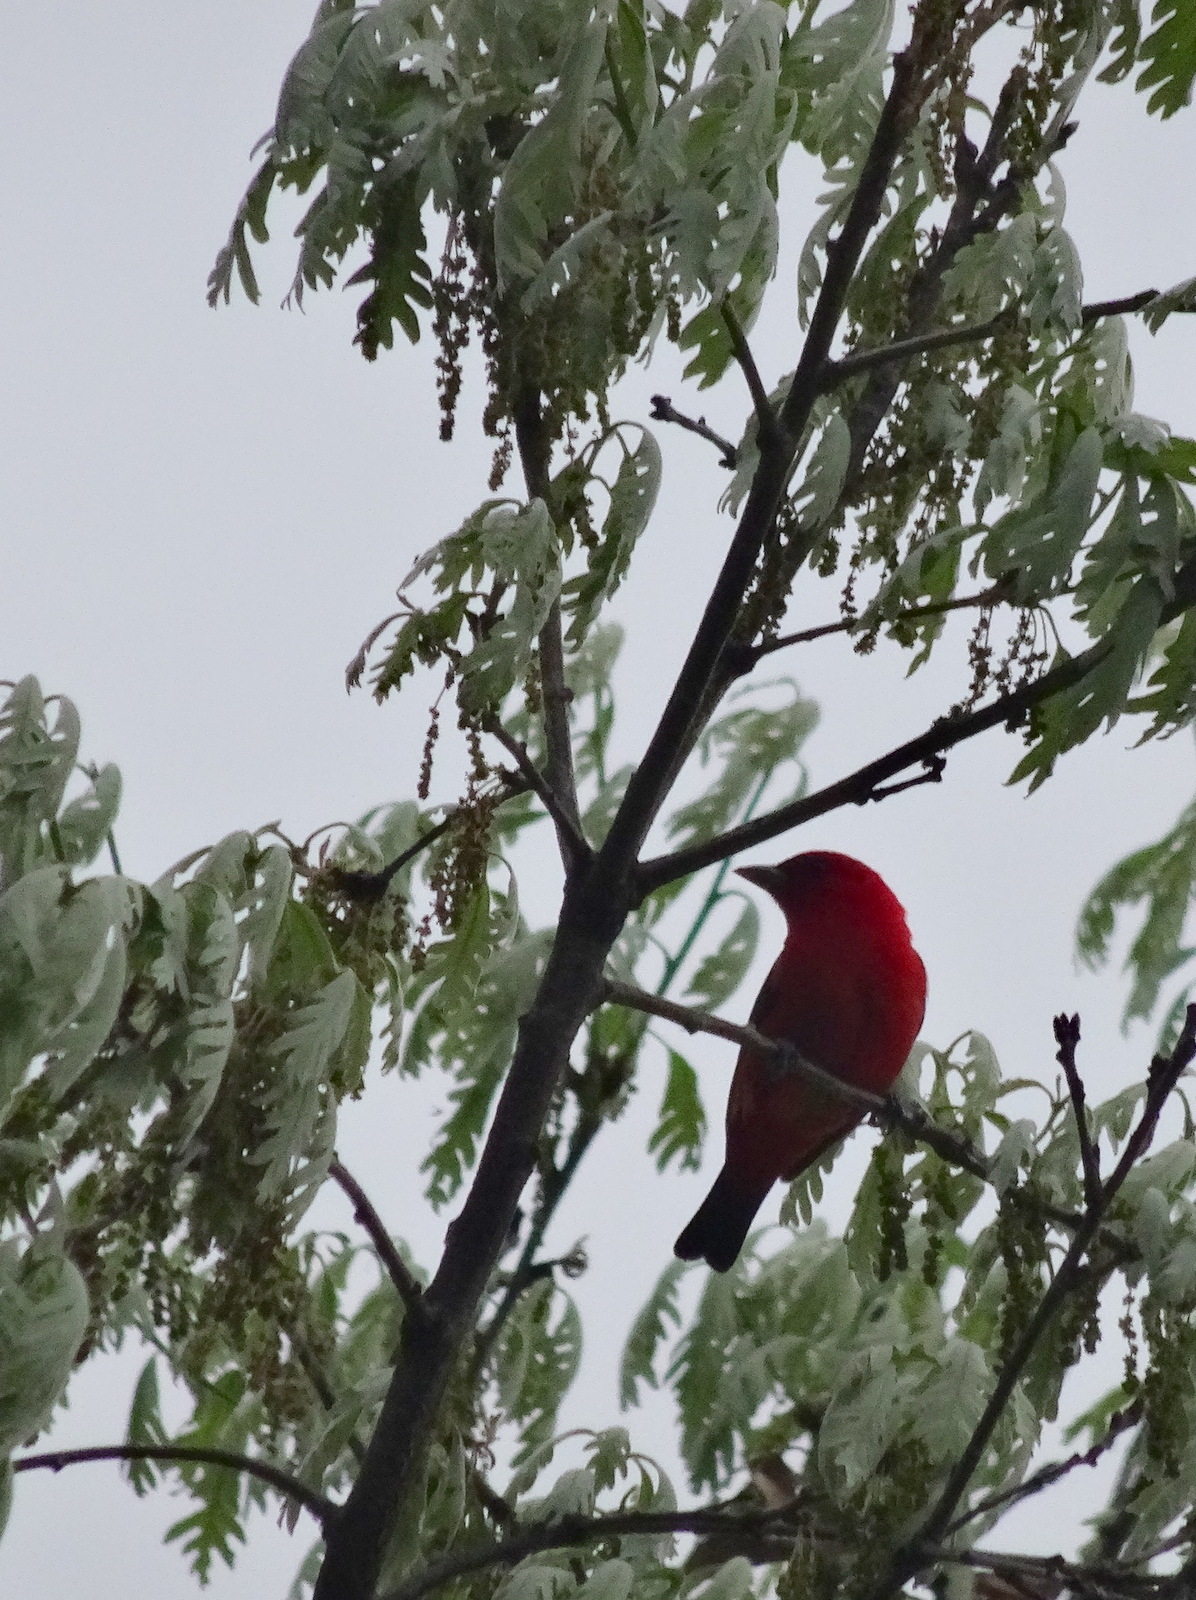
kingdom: Animalia
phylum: Chordata
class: Aves
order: Passeriformes
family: Cardinalidae
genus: Piranga
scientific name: Piranga olivacea
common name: Scarlet tanager
